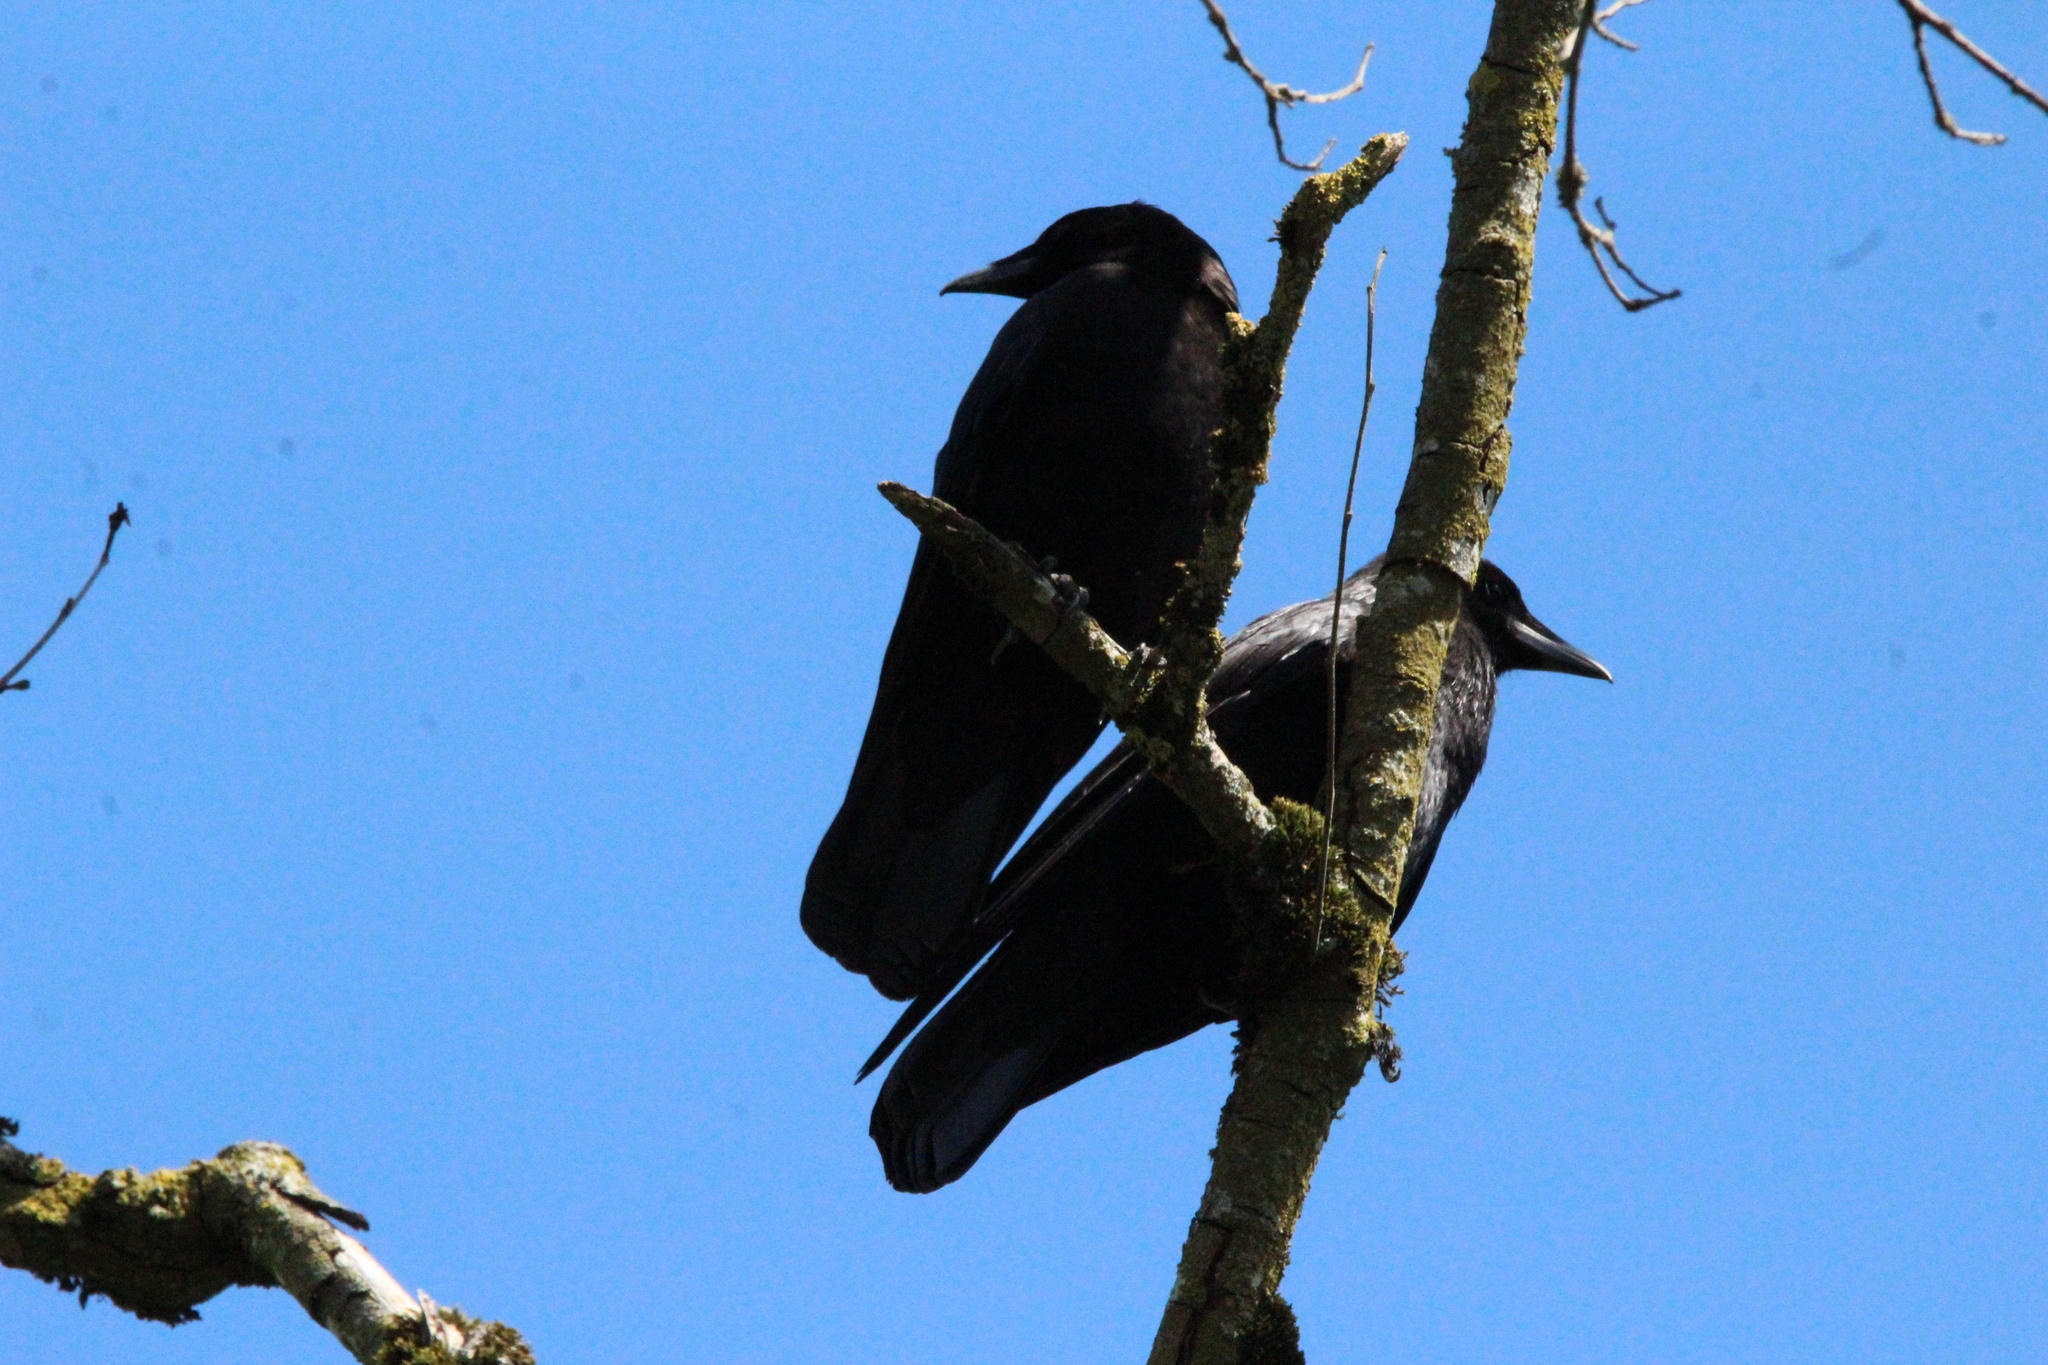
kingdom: Animalia
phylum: Chordata
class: Aves
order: Passeriformes
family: Corvidae
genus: Corvus
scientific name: Corvus brachyrhynchos
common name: American crow
